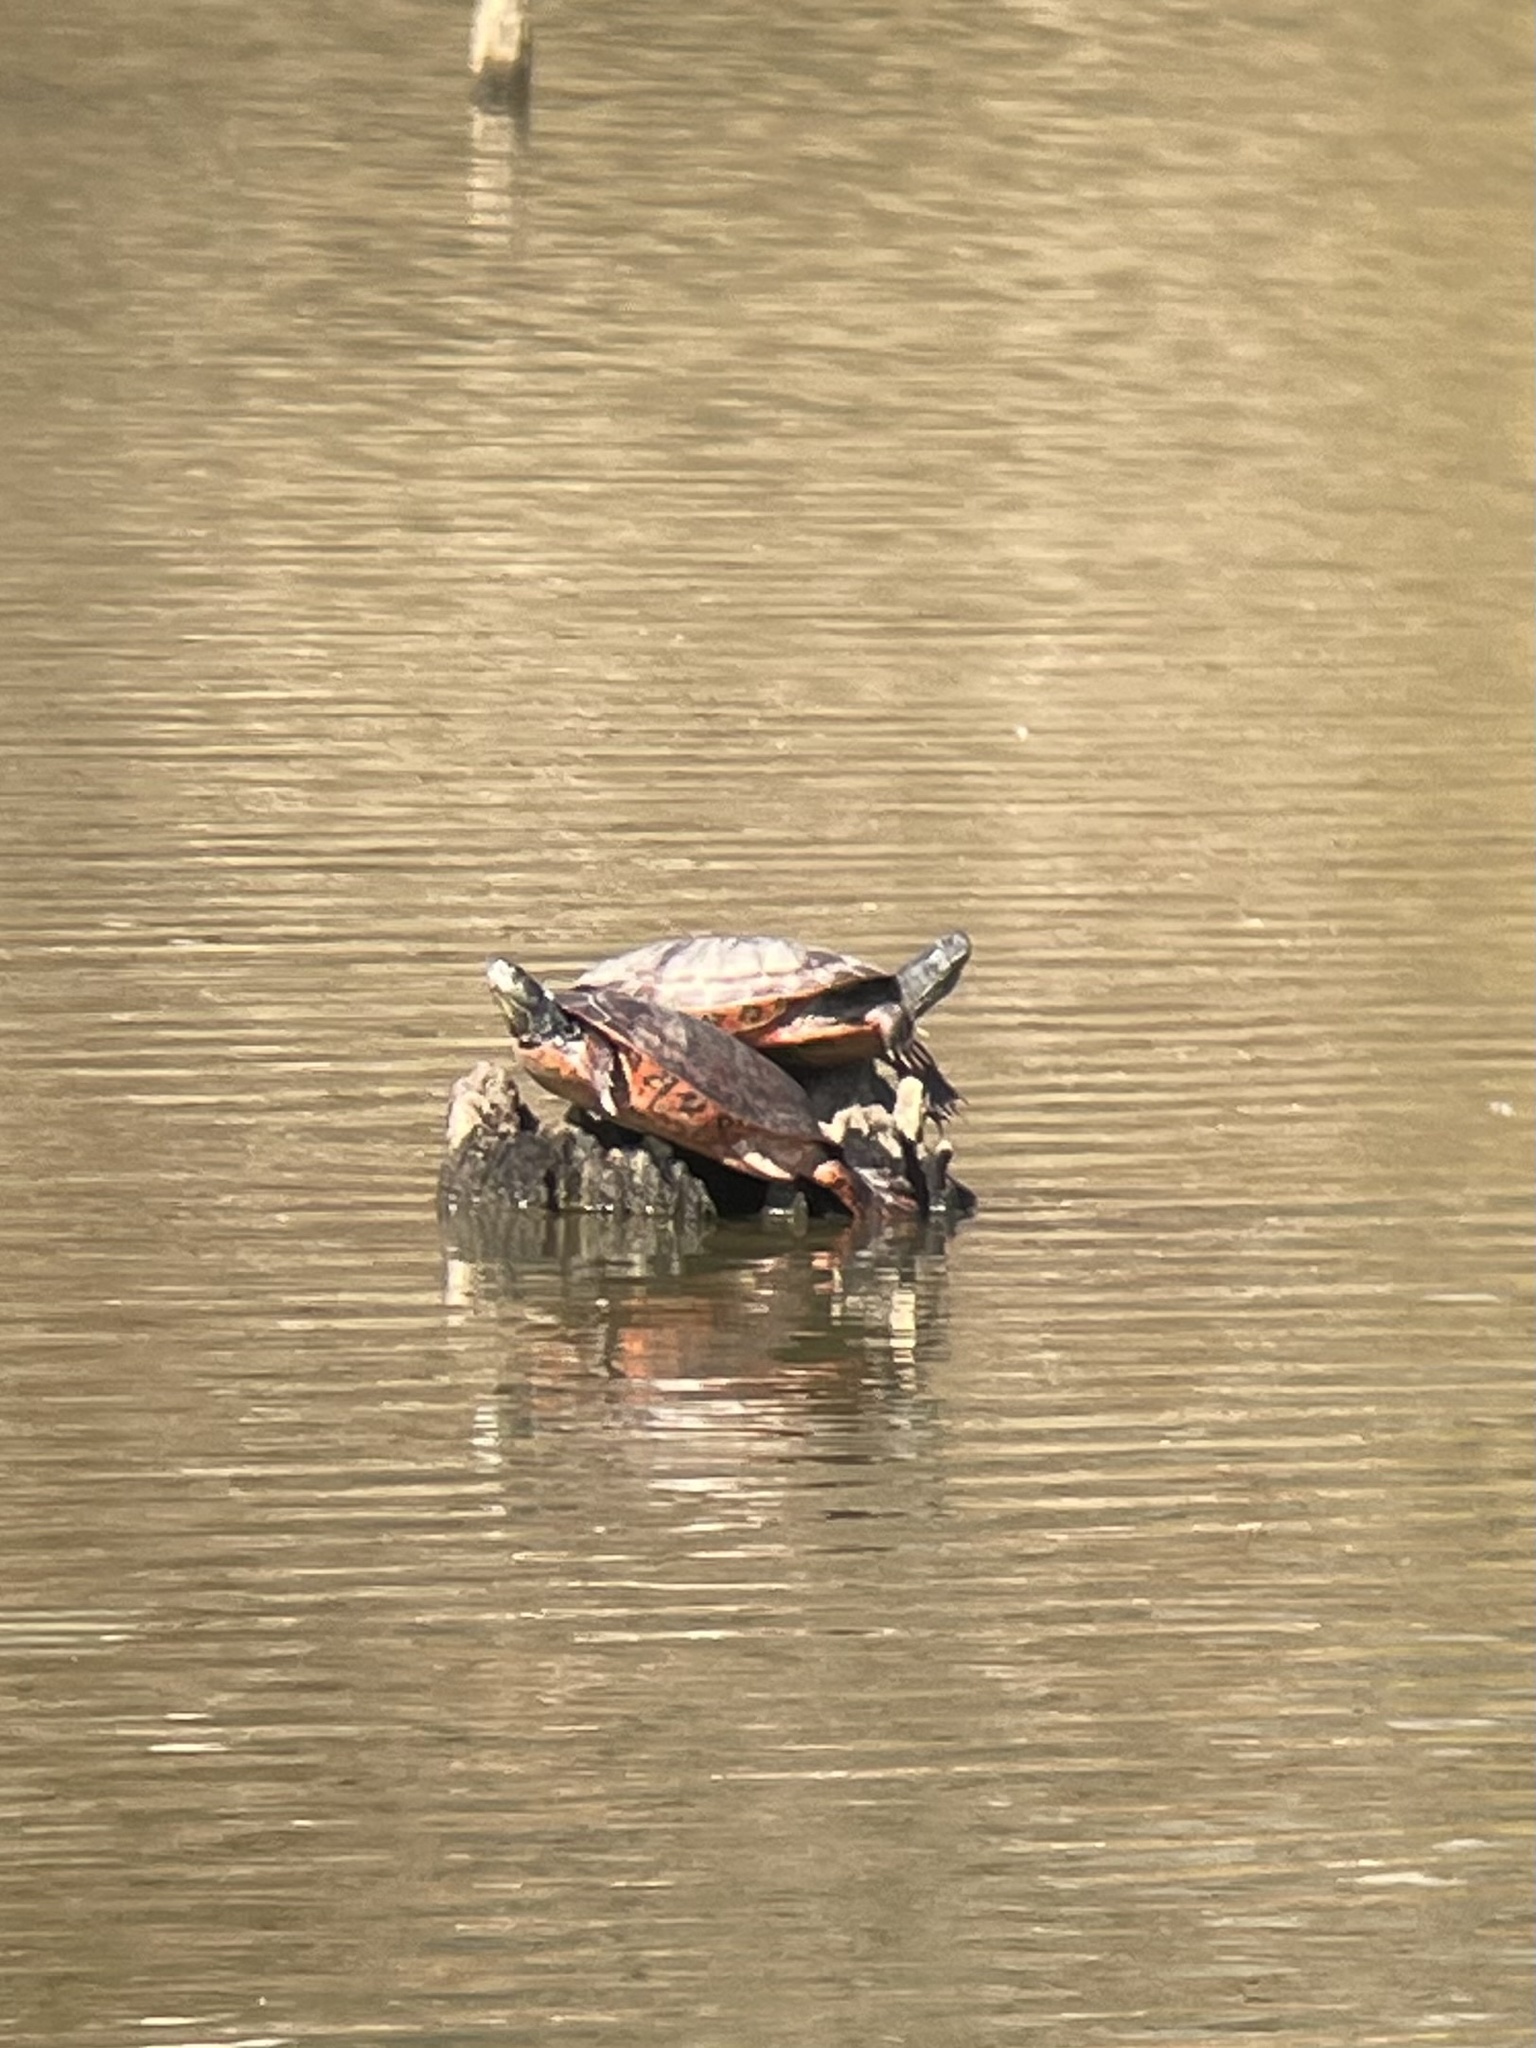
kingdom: Animalia
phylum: Chordata
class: Testudines
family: Emydidae
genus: Pseudemys
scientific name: Pseudemys rubriventris
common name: American red-bellied turtle
